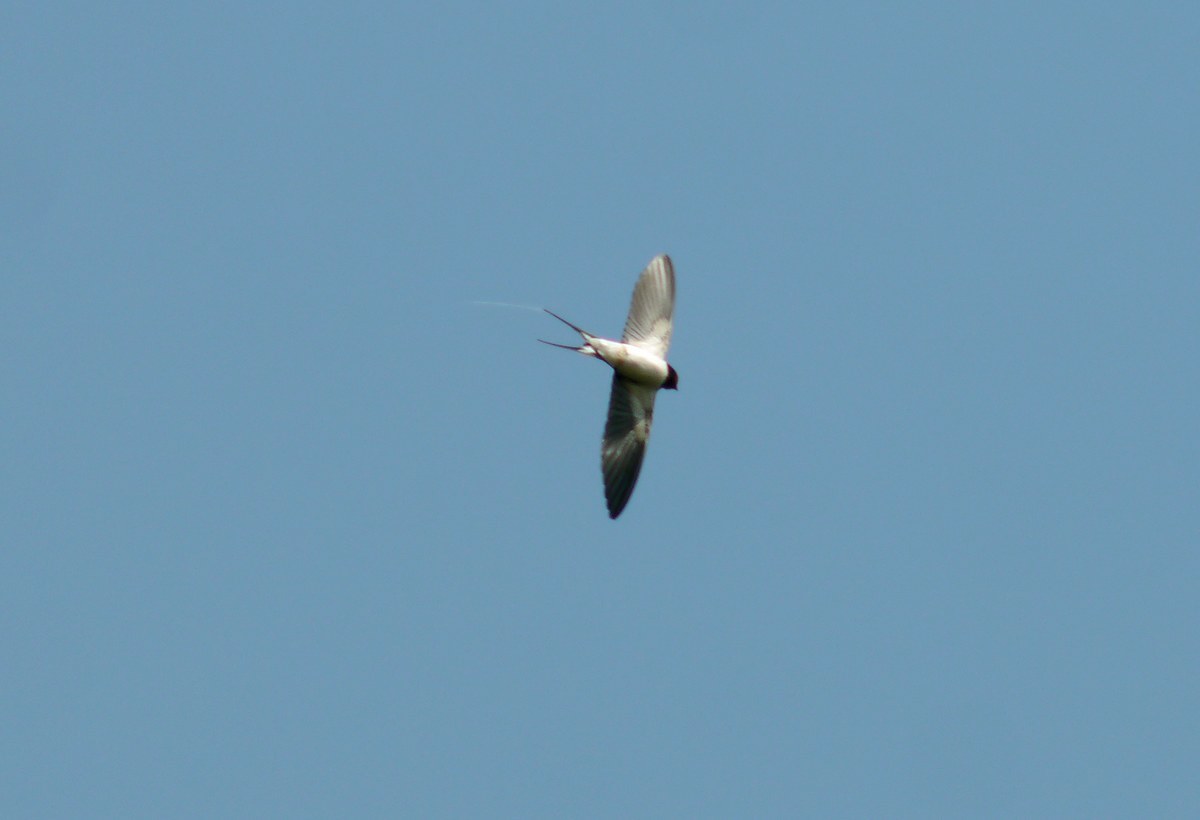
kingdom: Animalia
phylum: Chordata
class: Aves
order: Passeriformes
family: Hirundinidae
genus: Hirundo
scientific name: Hirundo rustica
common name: Barn swallow
